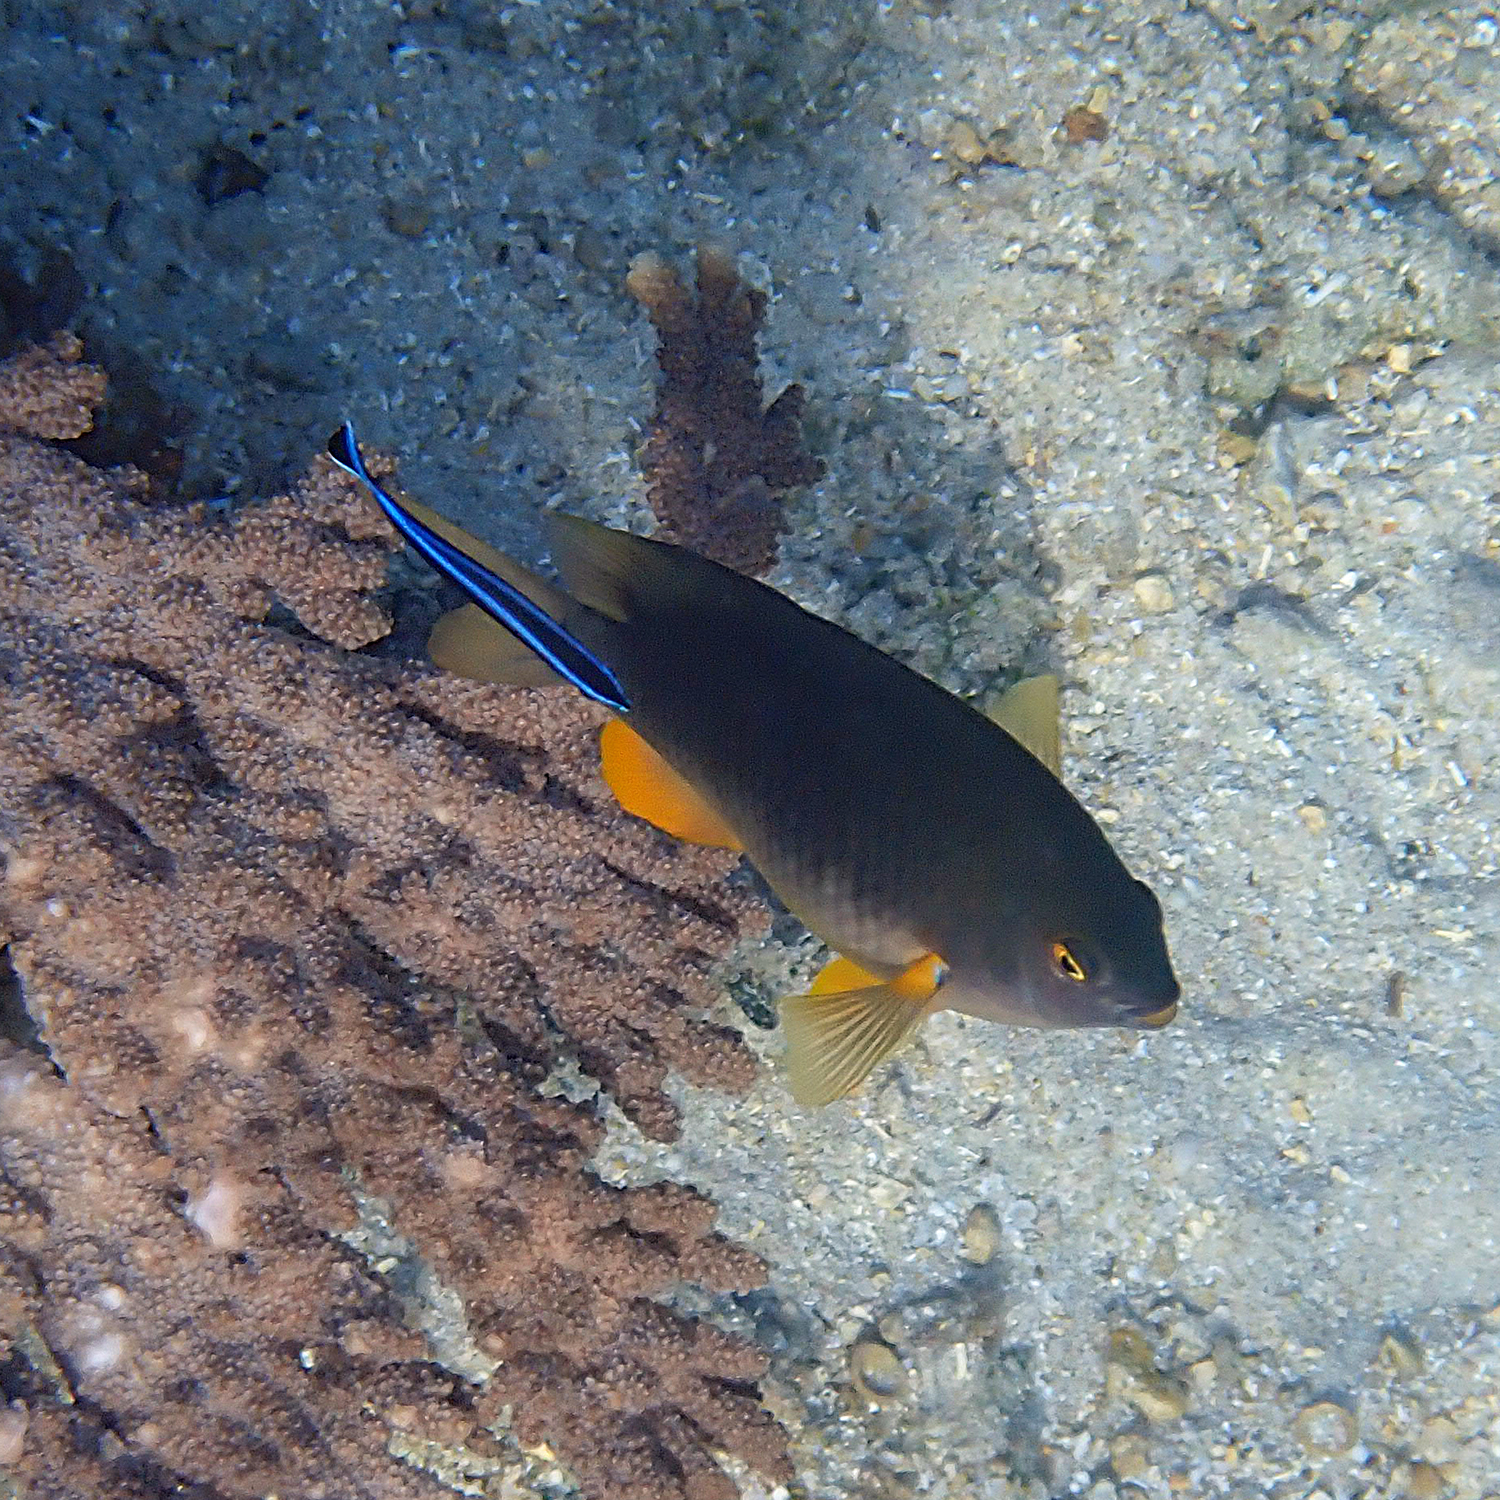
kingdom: Animalia
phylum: Chordata
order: Perciformes
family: Labridae
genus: Labroides
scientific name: Labroides dimidiatus
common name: Blue diesel wrasse
